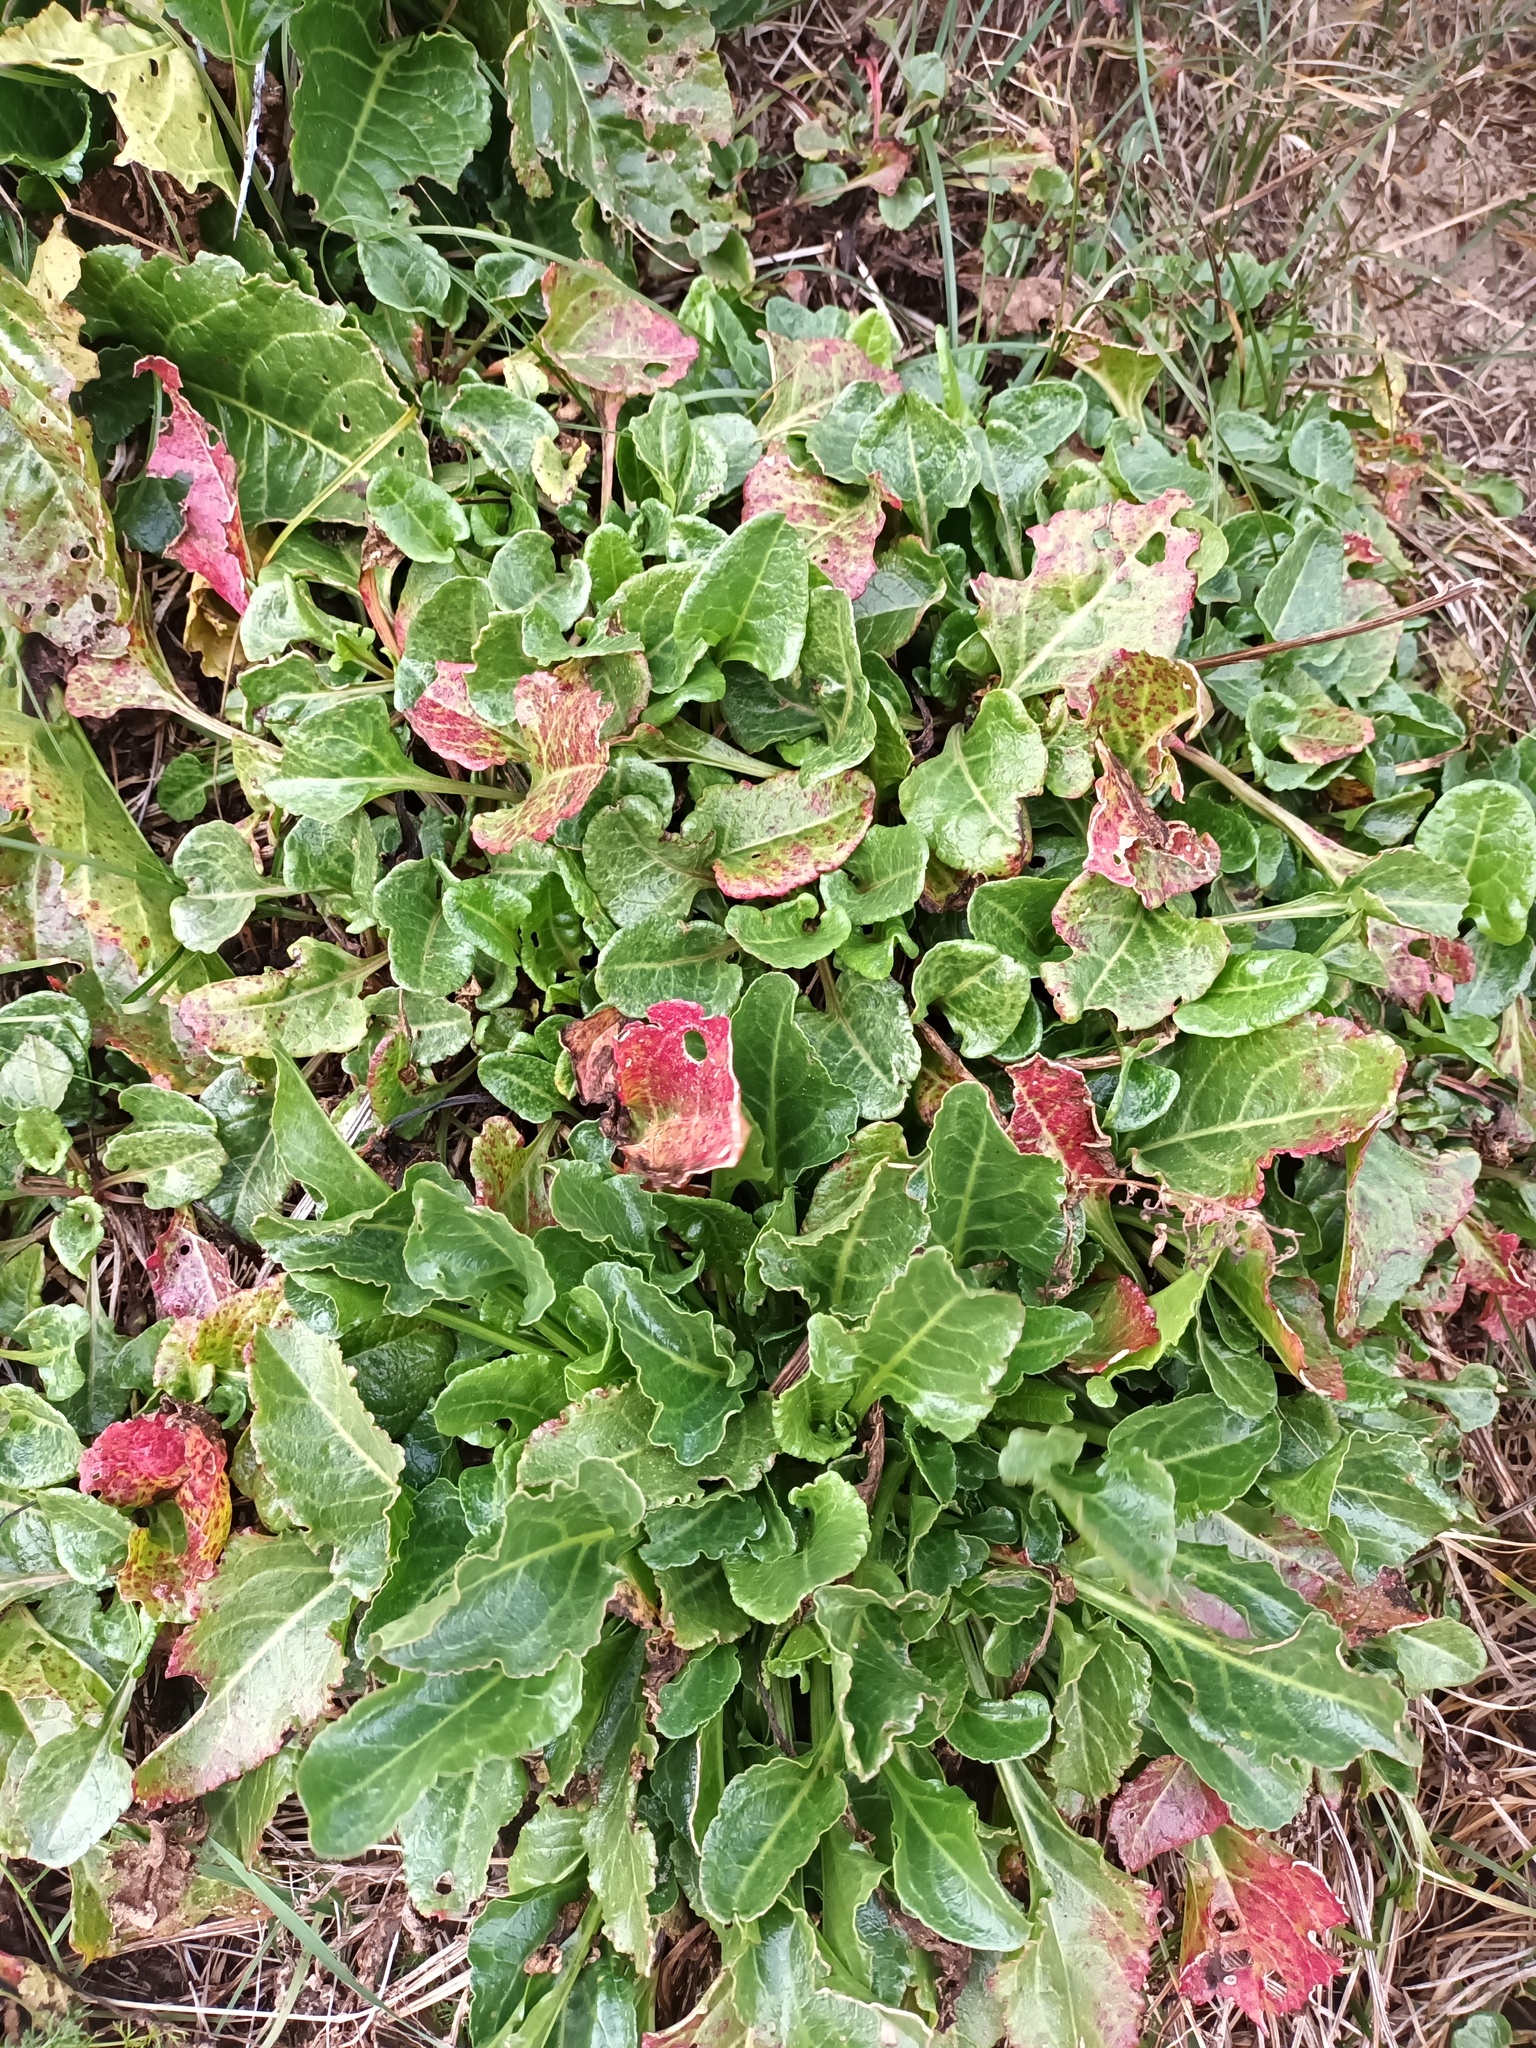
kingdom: Plantae
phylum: Tracheophyta
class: Magnoliopsida
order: Caryophyllales
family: Amaranthaceae
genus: Beta
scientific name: Beta vulgaris
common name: Beet
